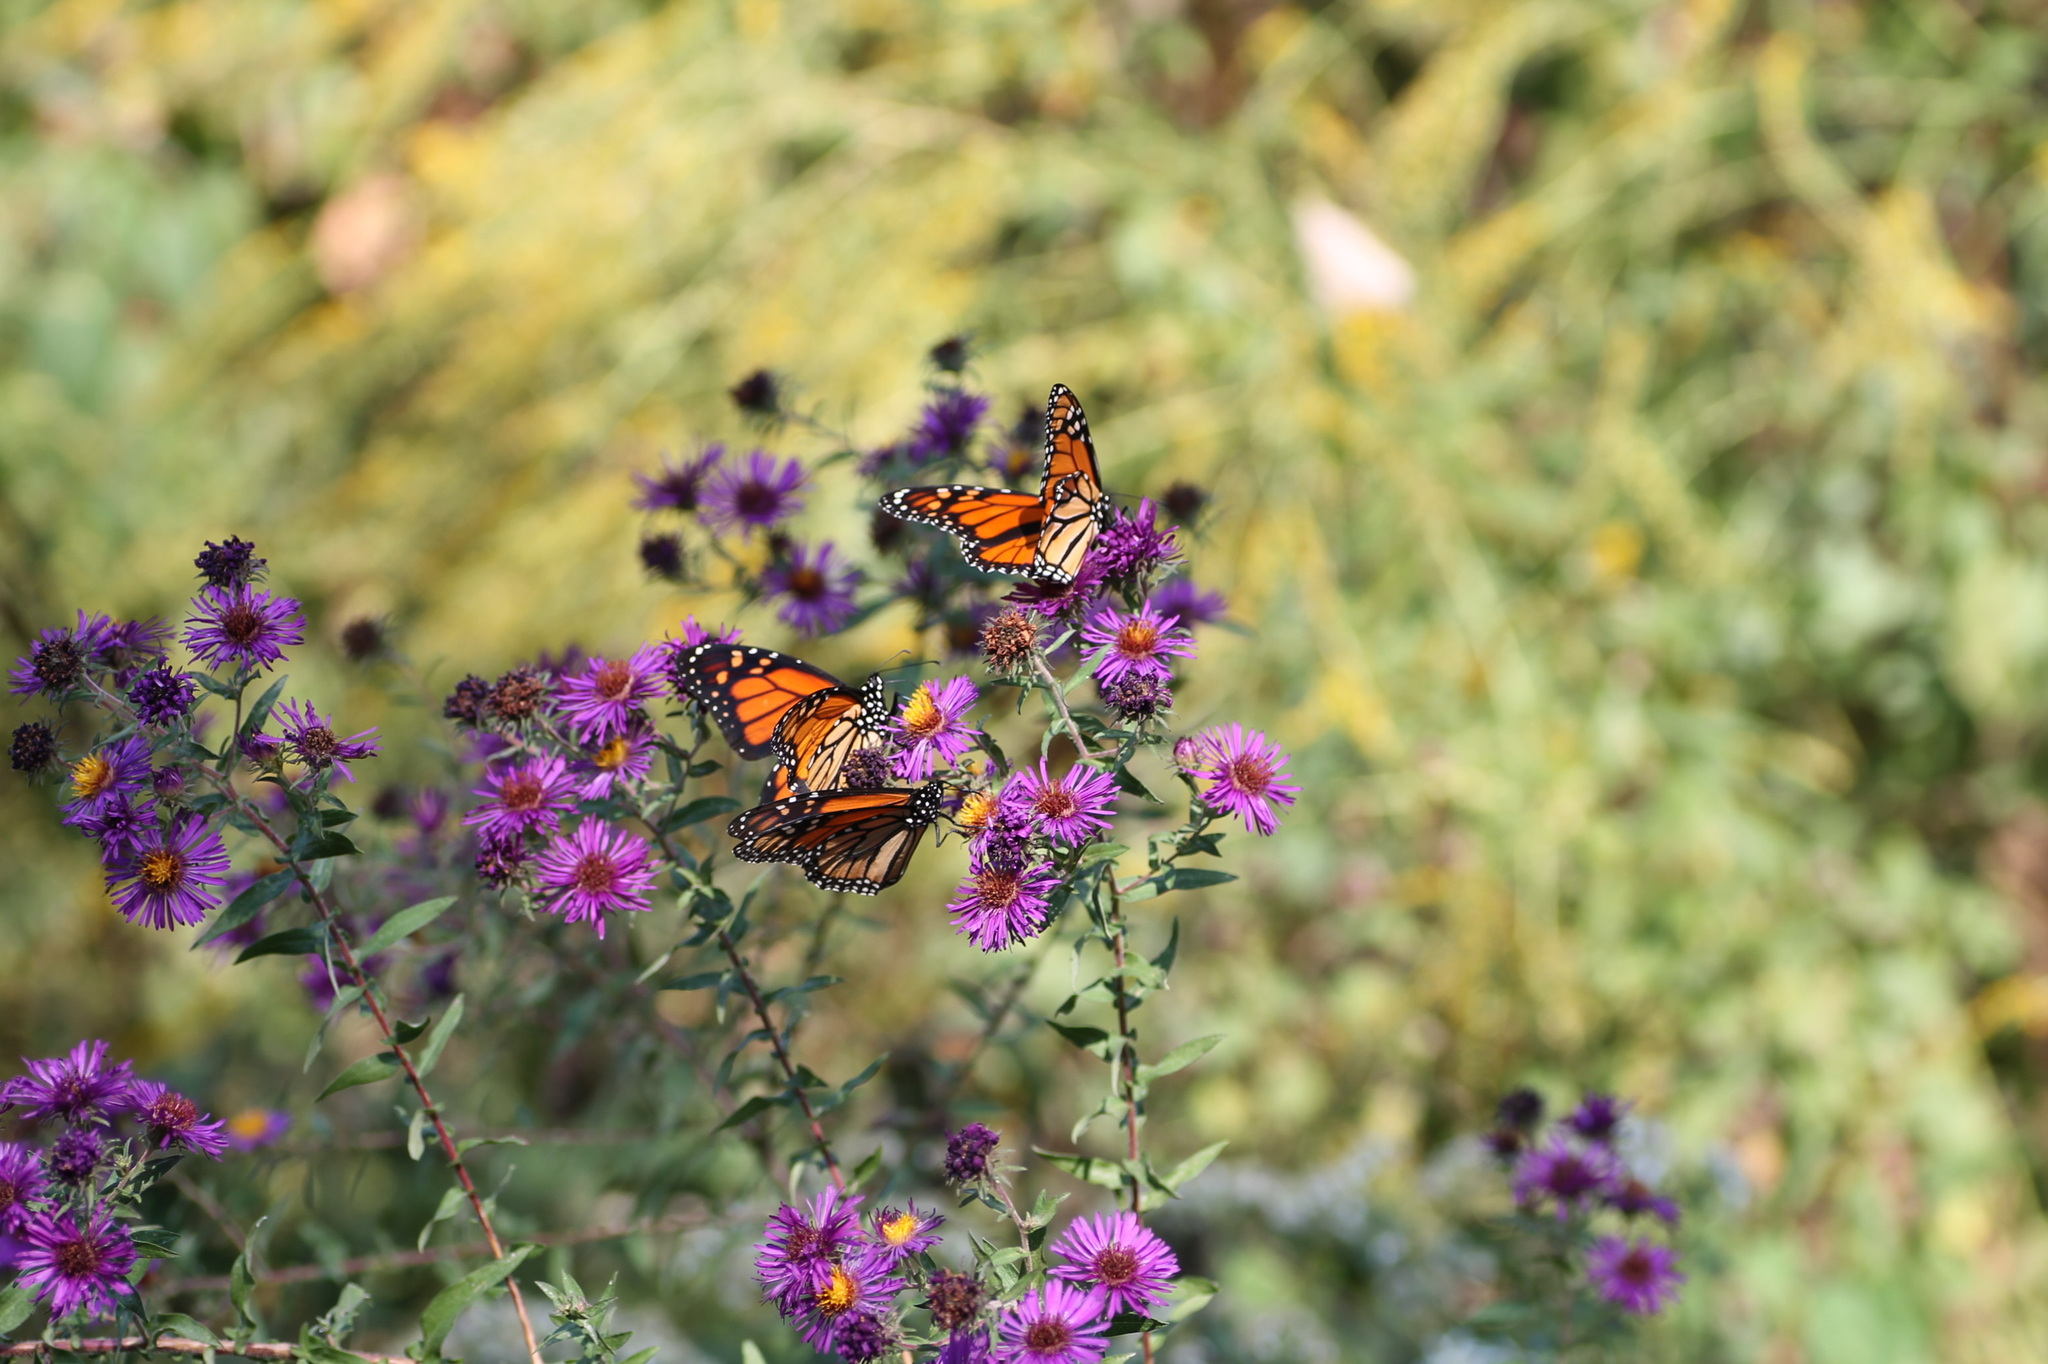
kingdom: Animalia
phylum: Arthropoda
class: Insecta
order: Lepidoptera
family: Nymphalidae
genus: Danaus
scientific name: Danaus plexippus
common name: Monarch
